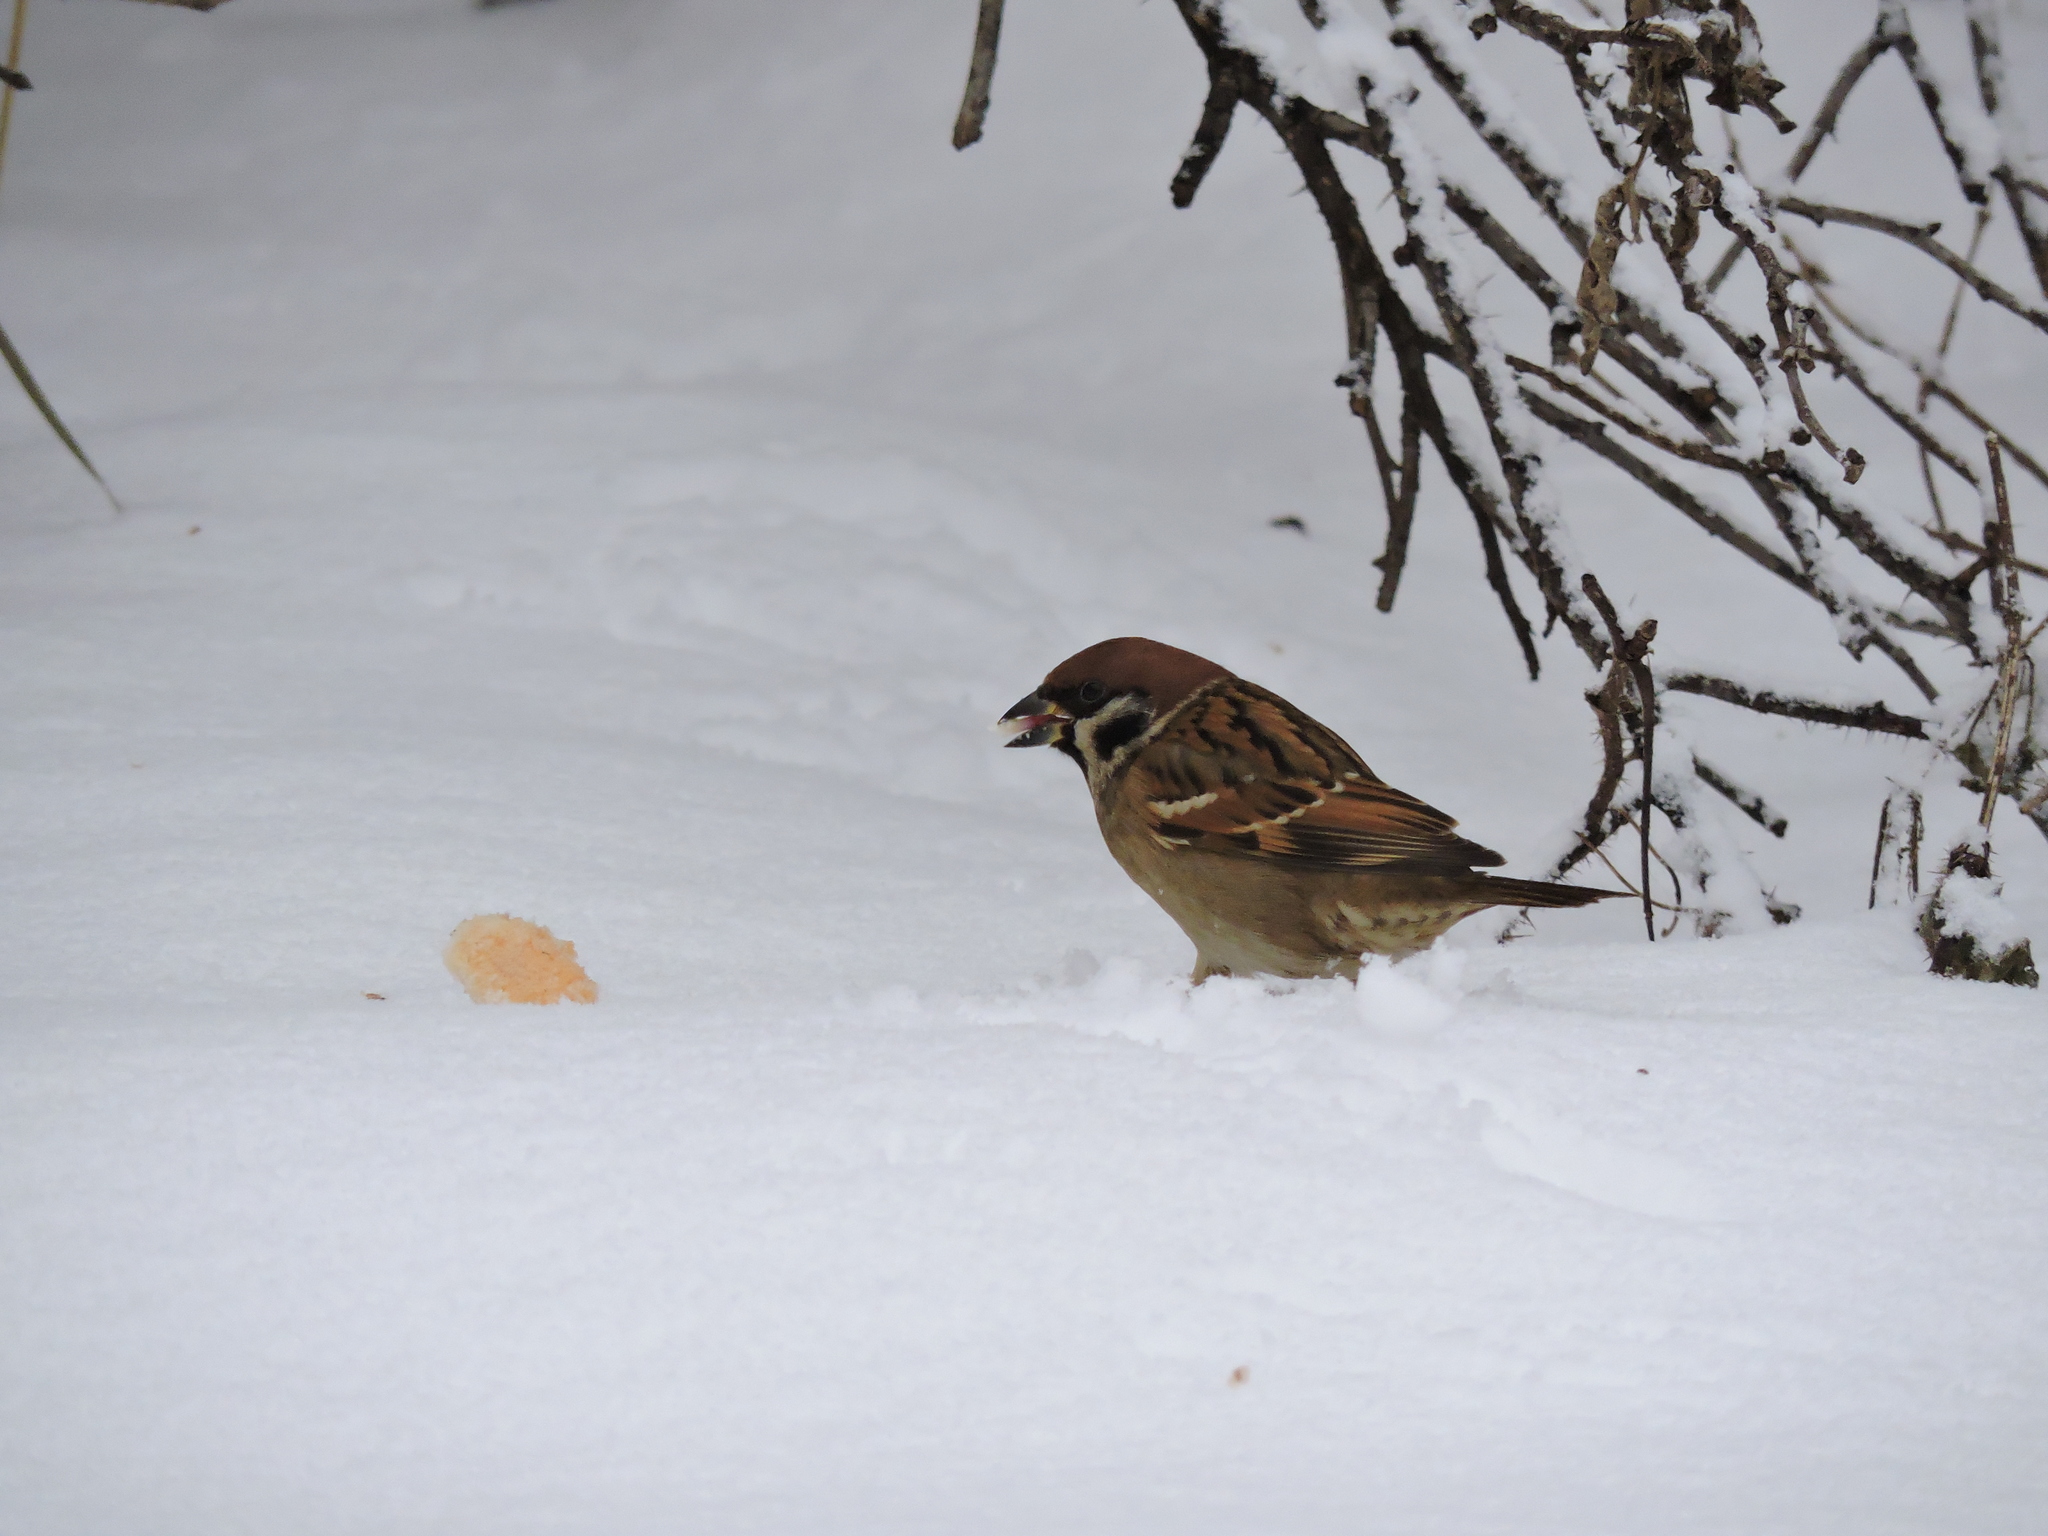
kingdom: Animalia
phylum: Chordata
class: Aves
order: Passeriformes
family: Passeridae
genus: Passer
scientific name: Passer montanus
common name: Eurasian tree sparrow
